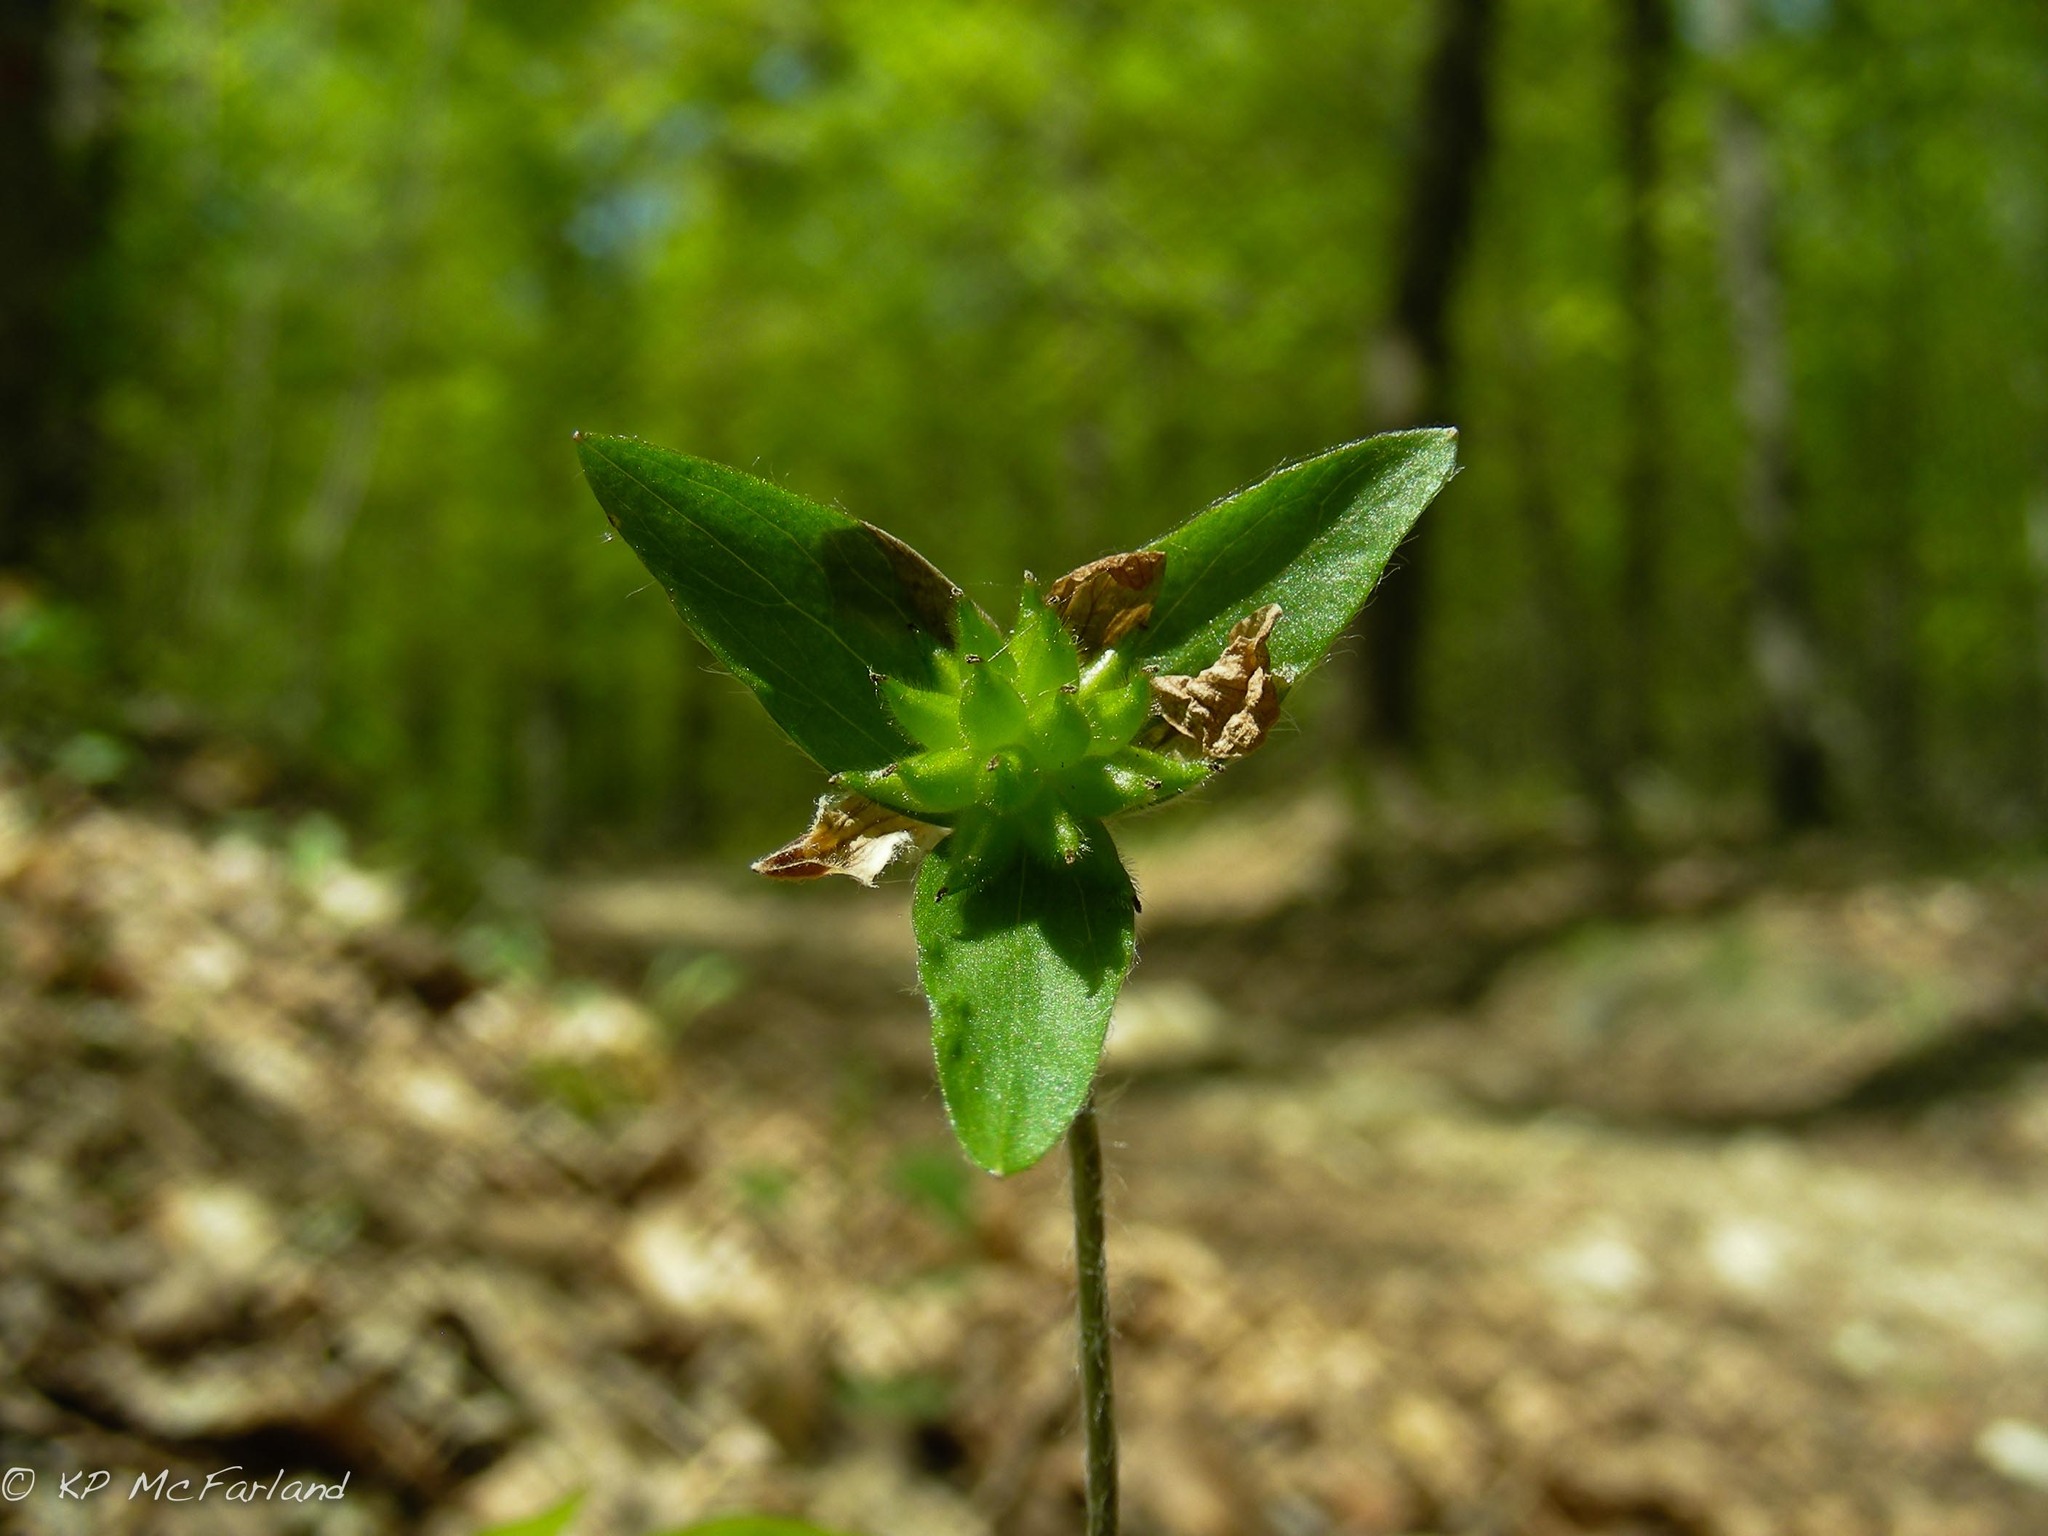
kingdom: Plantae
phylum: Tracheophyta
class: Magnoliopsida
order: Ranunculales
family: Ranunculaceae
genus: Hepatica
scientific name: Hepatica acutiloba
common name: Sharp-lobed hepatica
